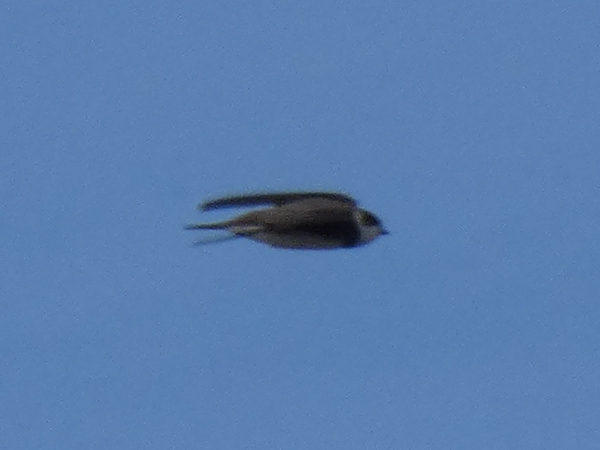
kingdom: Animalia
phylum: Chordata
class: Aves
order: Passeriformes
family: Hirundinidae
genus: Riparia
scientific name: Riparia riparia
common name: Sand martin
